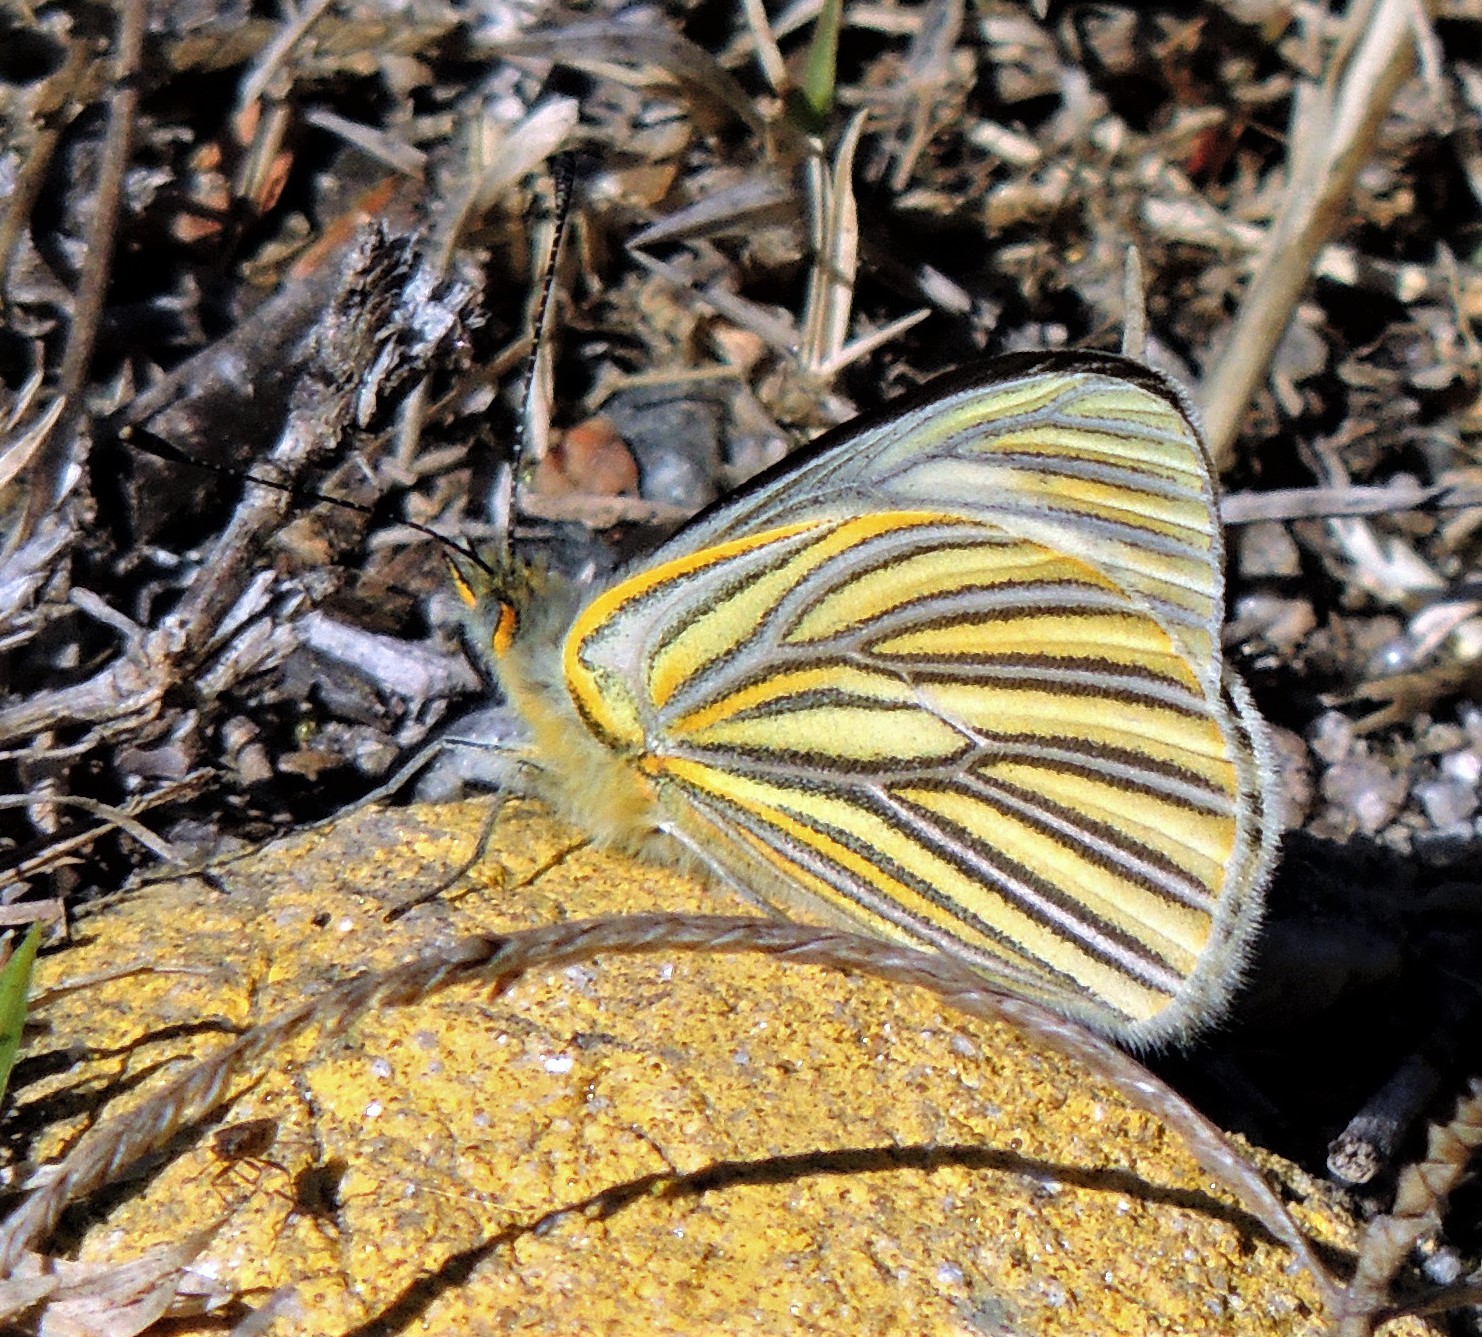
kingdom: Animalia
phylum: Arthropoda
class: Insecta
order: Lepidoptera
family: Pieridae
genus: Tatochila
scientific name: Tatochila orthodice
